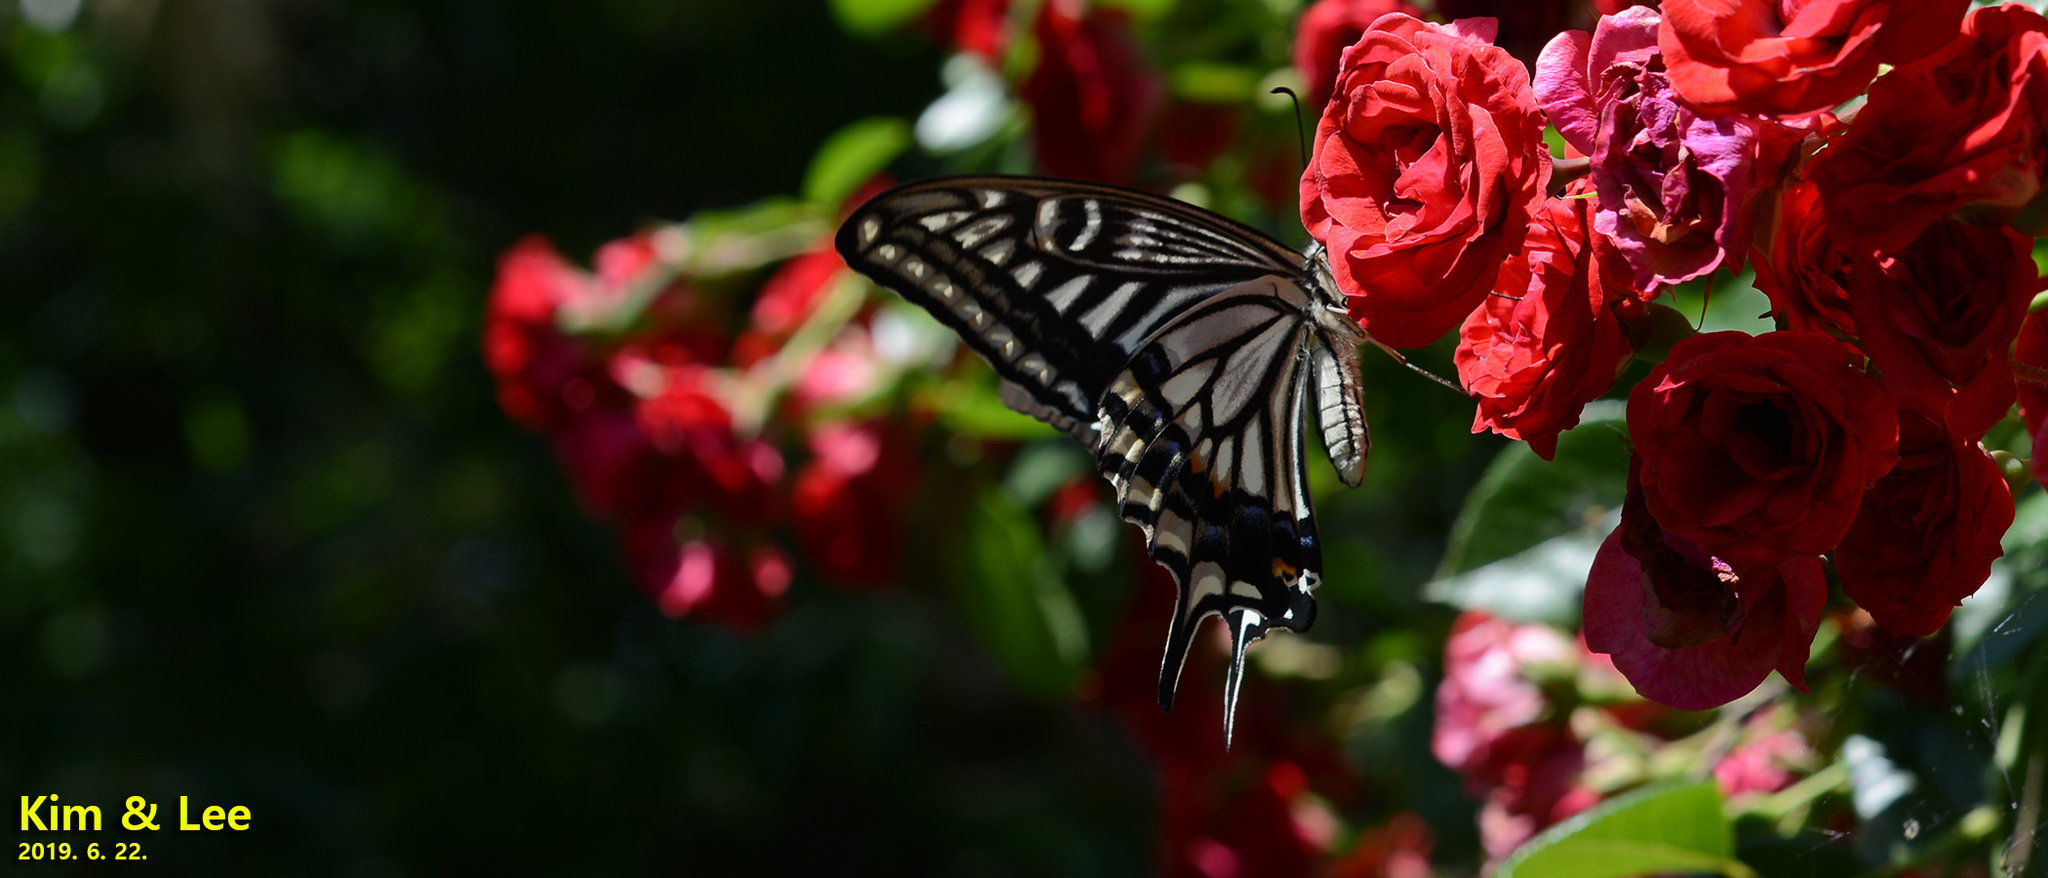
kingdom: Animalia
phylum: Arthropoda
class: Insecta
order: Lepidoptera
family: Papilionidae
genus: Papilio
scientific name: Papilio xuthus
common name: Asian swallowtail
